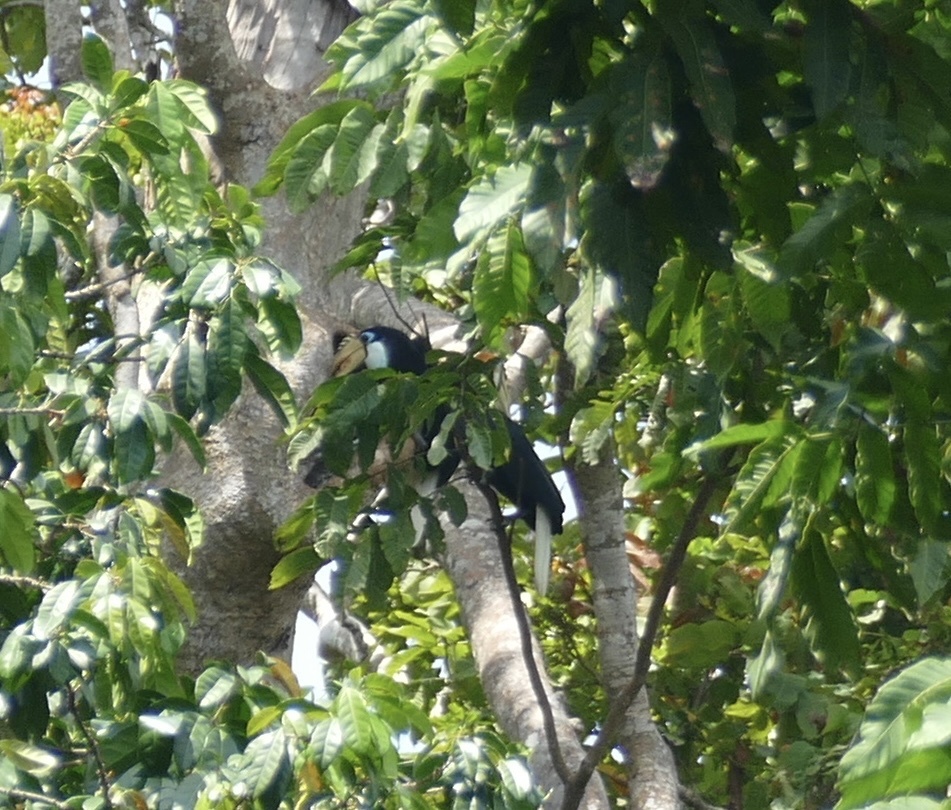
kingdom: Animalia
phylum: Chordata
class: Aves
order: Bucerotiformes
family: Bucerotidae
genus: Rhyticeros
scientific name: Rhyticeros plicatus
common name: Blyth's hornbill
